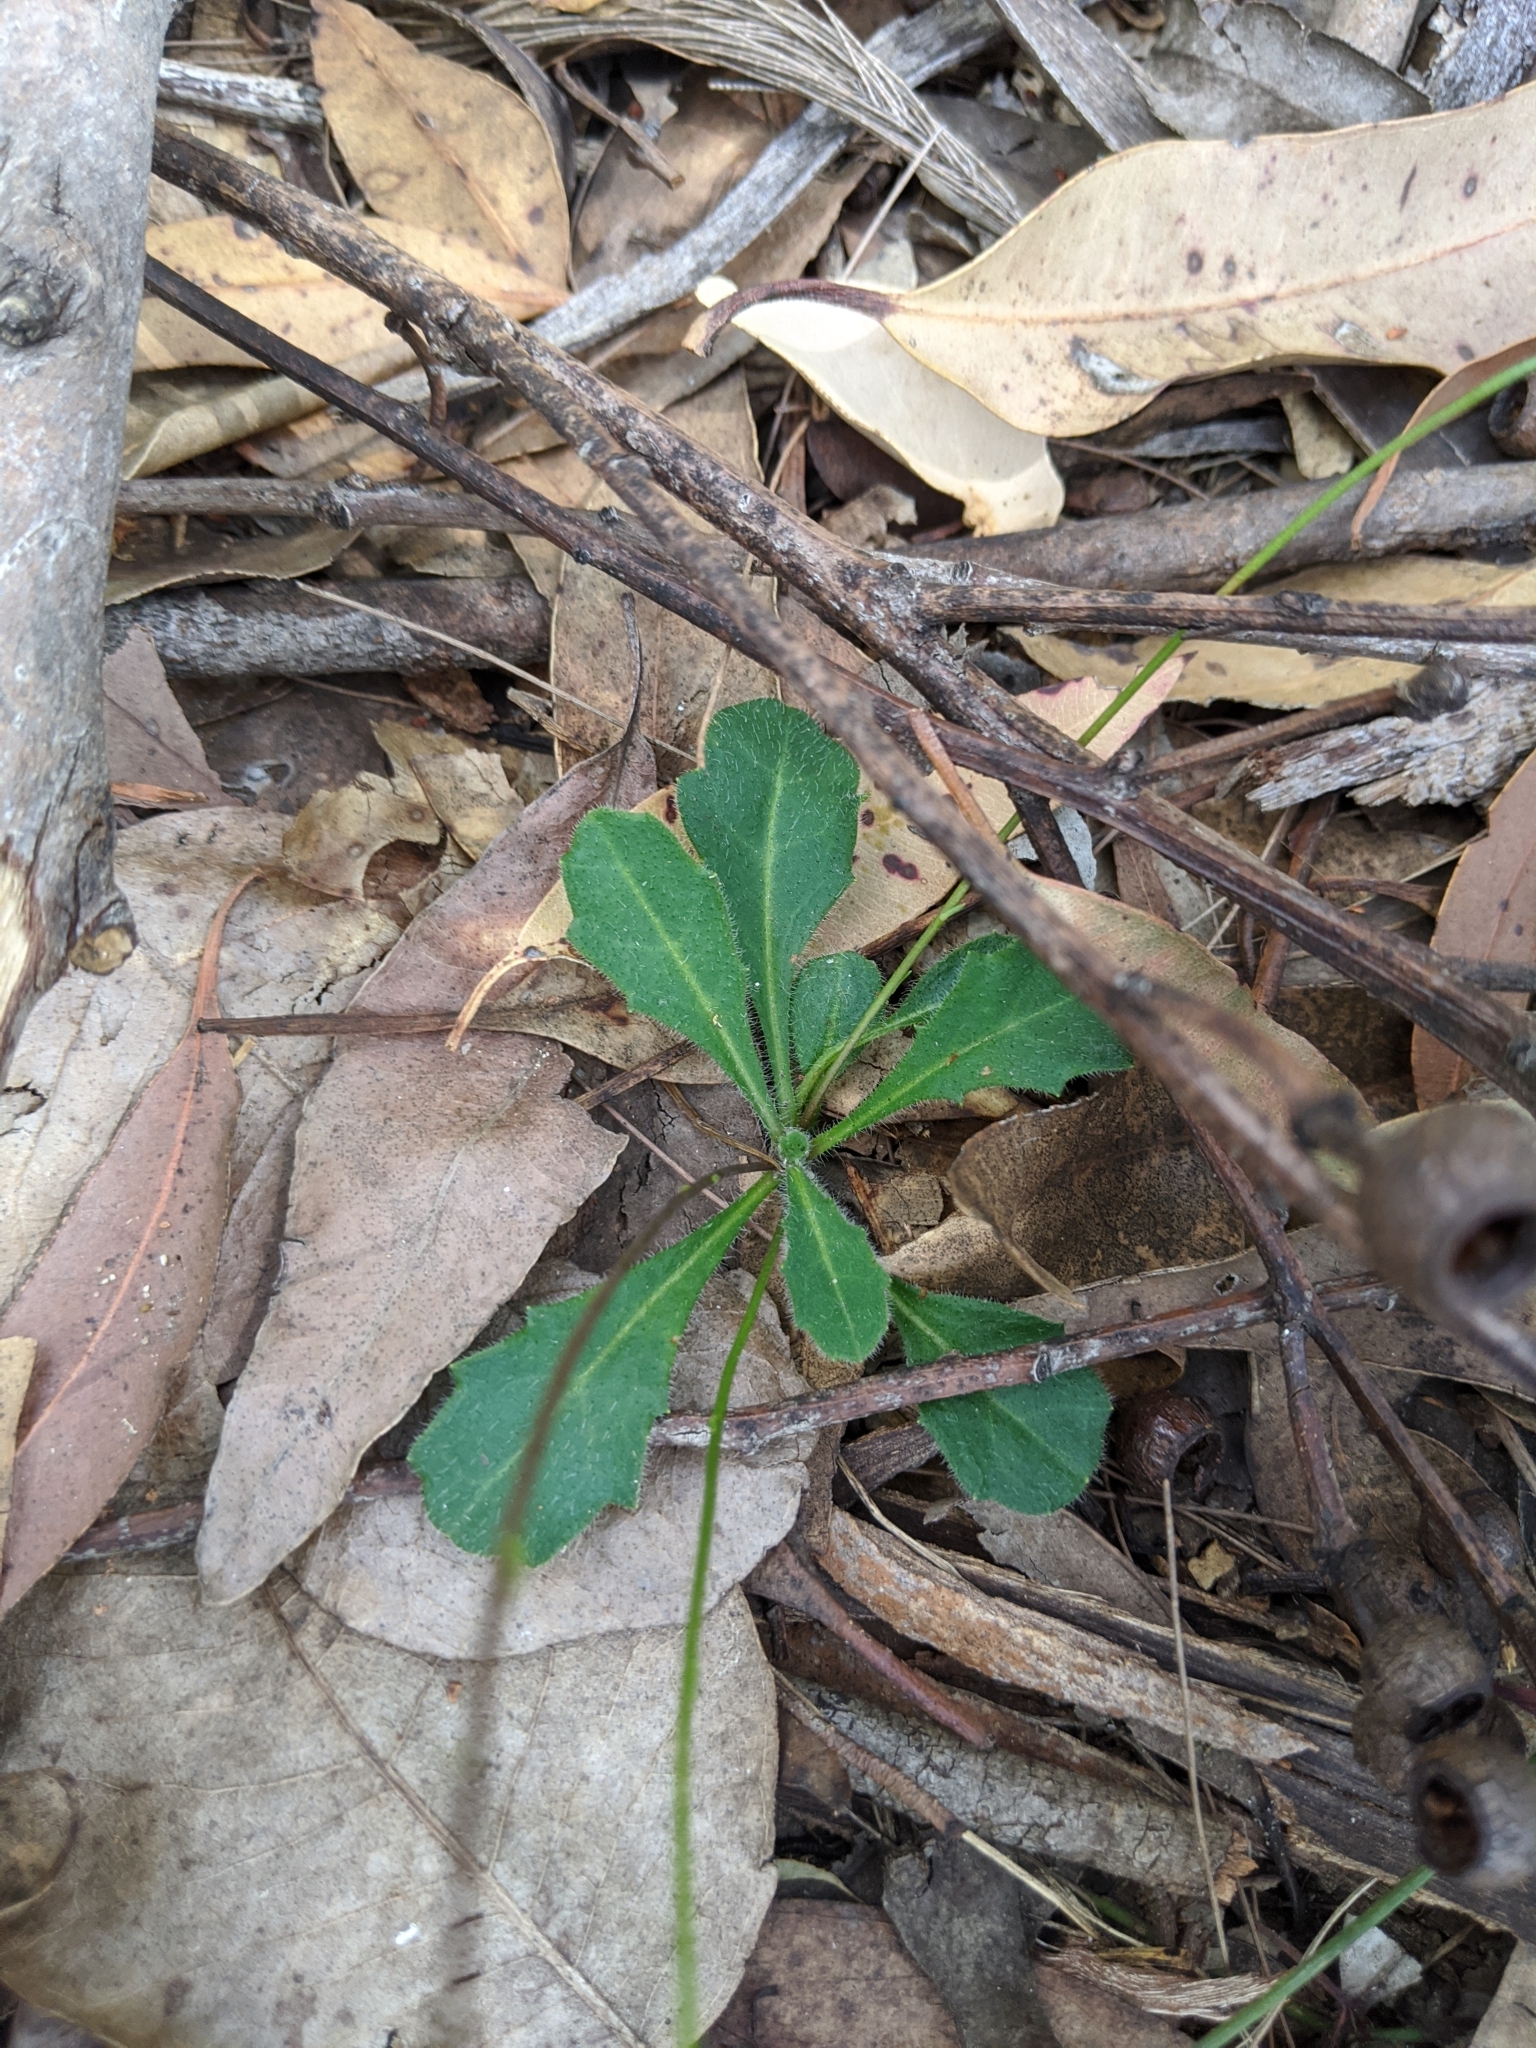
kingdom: Plantae
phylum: Tracheophyta
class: Magnoliopsida
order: Asterales
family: Asteraceae
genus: Lagenophora
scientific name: Lagenophora sublyrata ter
